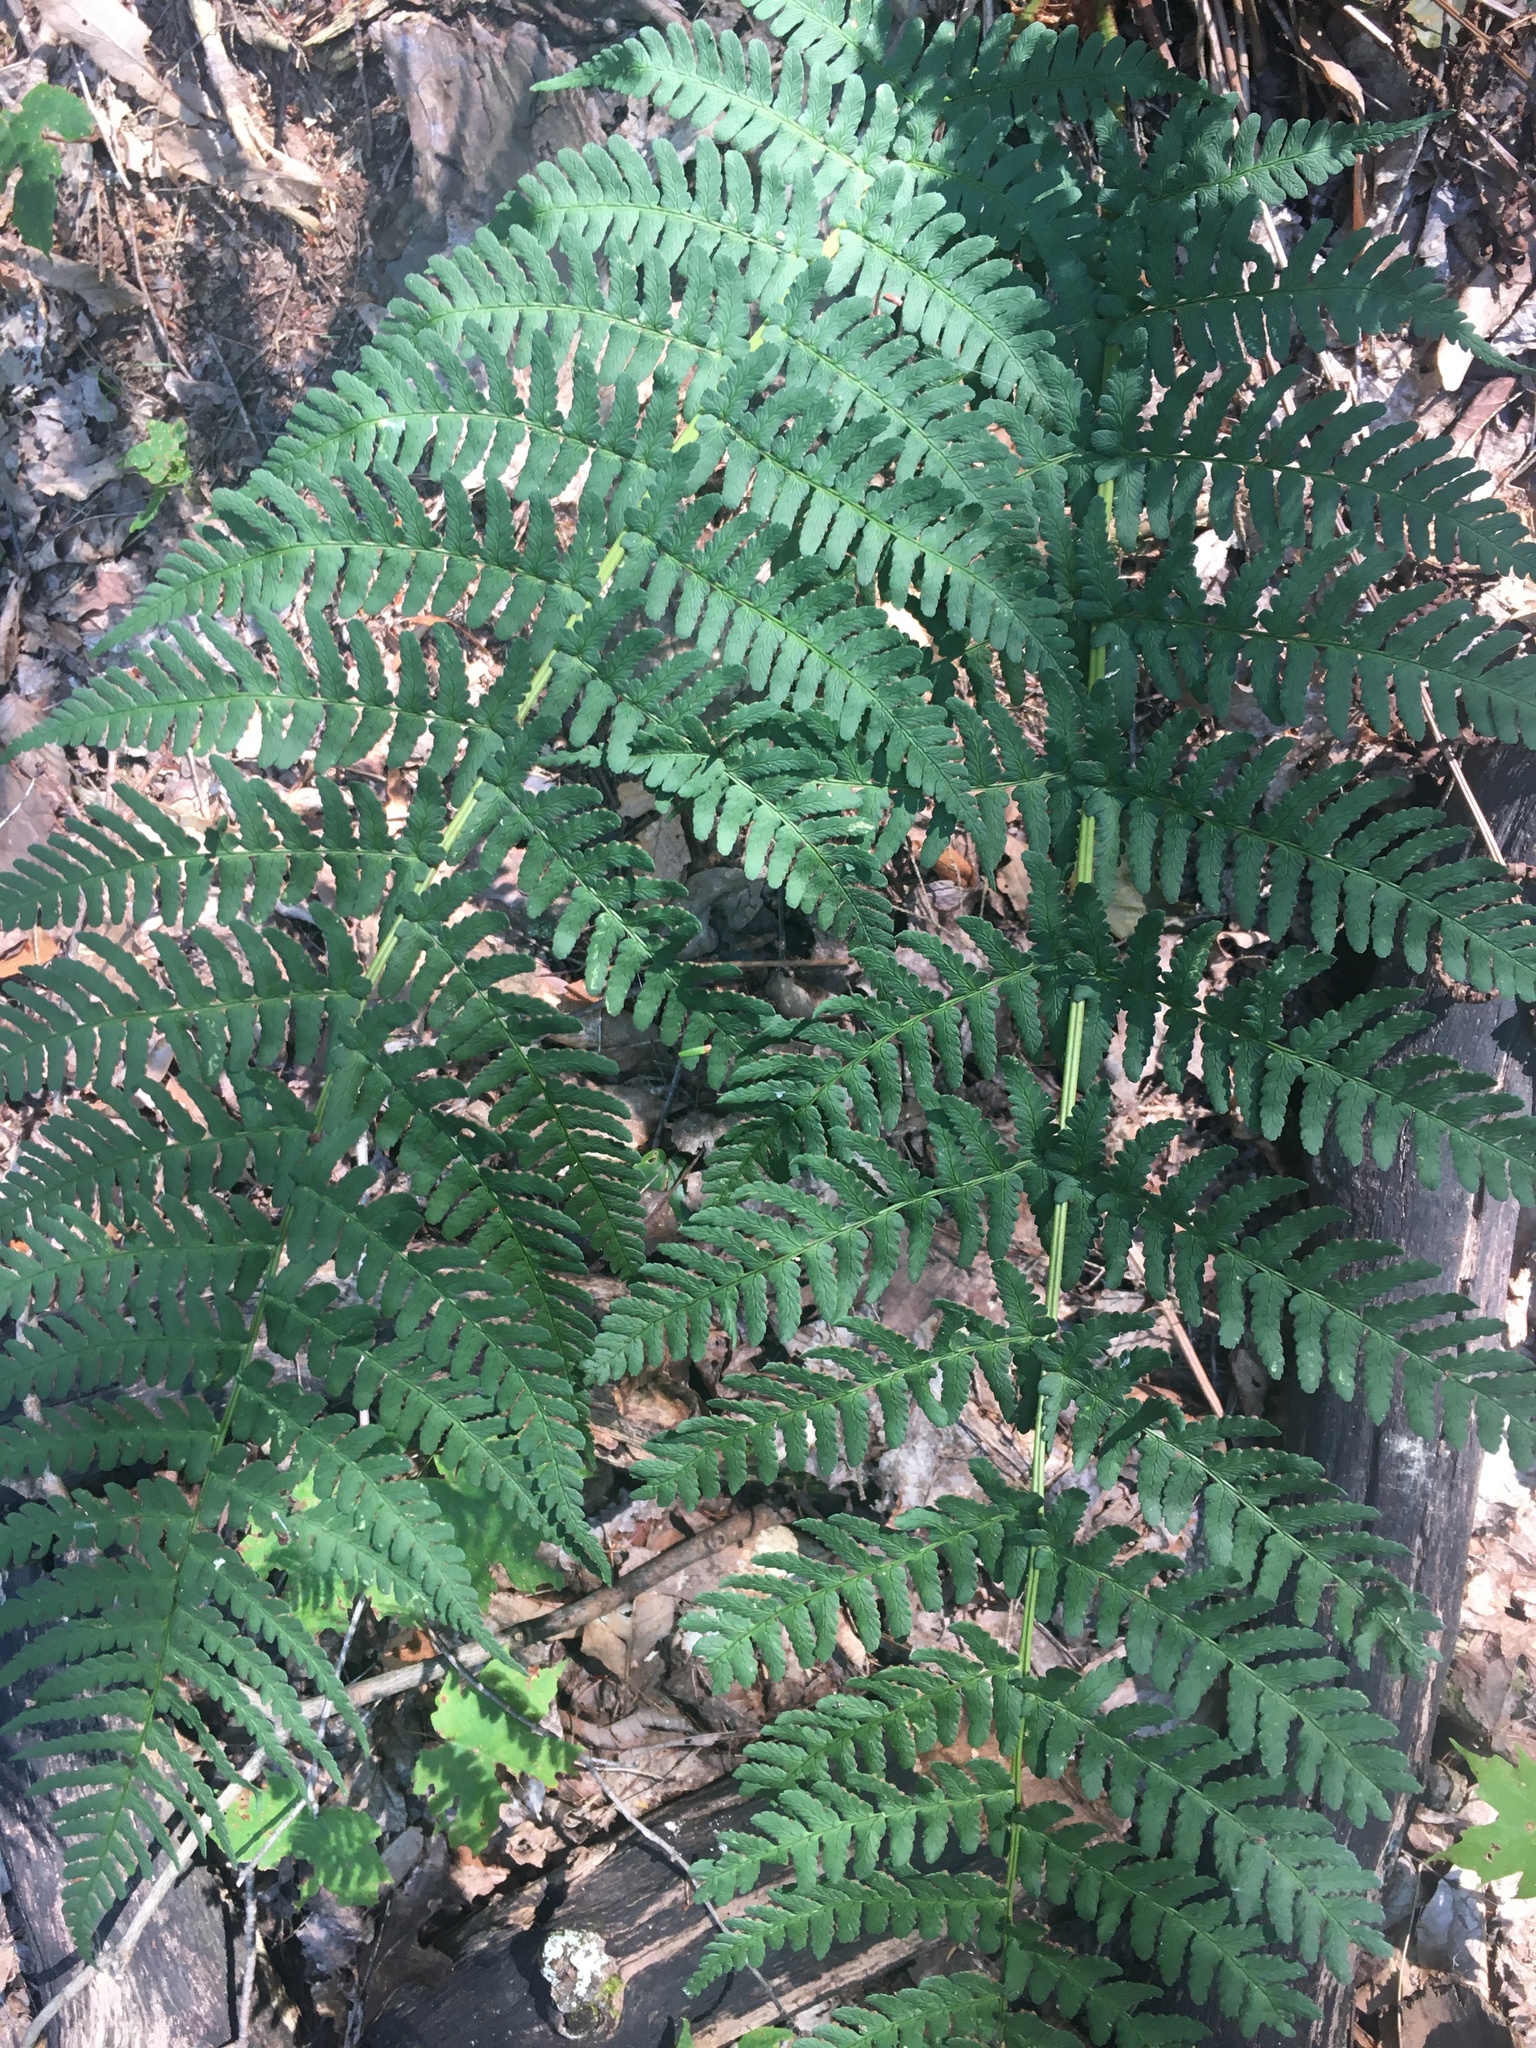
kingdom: Plantae
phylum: Tracheophyta
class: Polypodiopsida
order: Polypodiales
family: Dryopteridaceae
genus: Dryopteris
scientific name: Dryopteris marginalis
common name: Marginal wood fern
